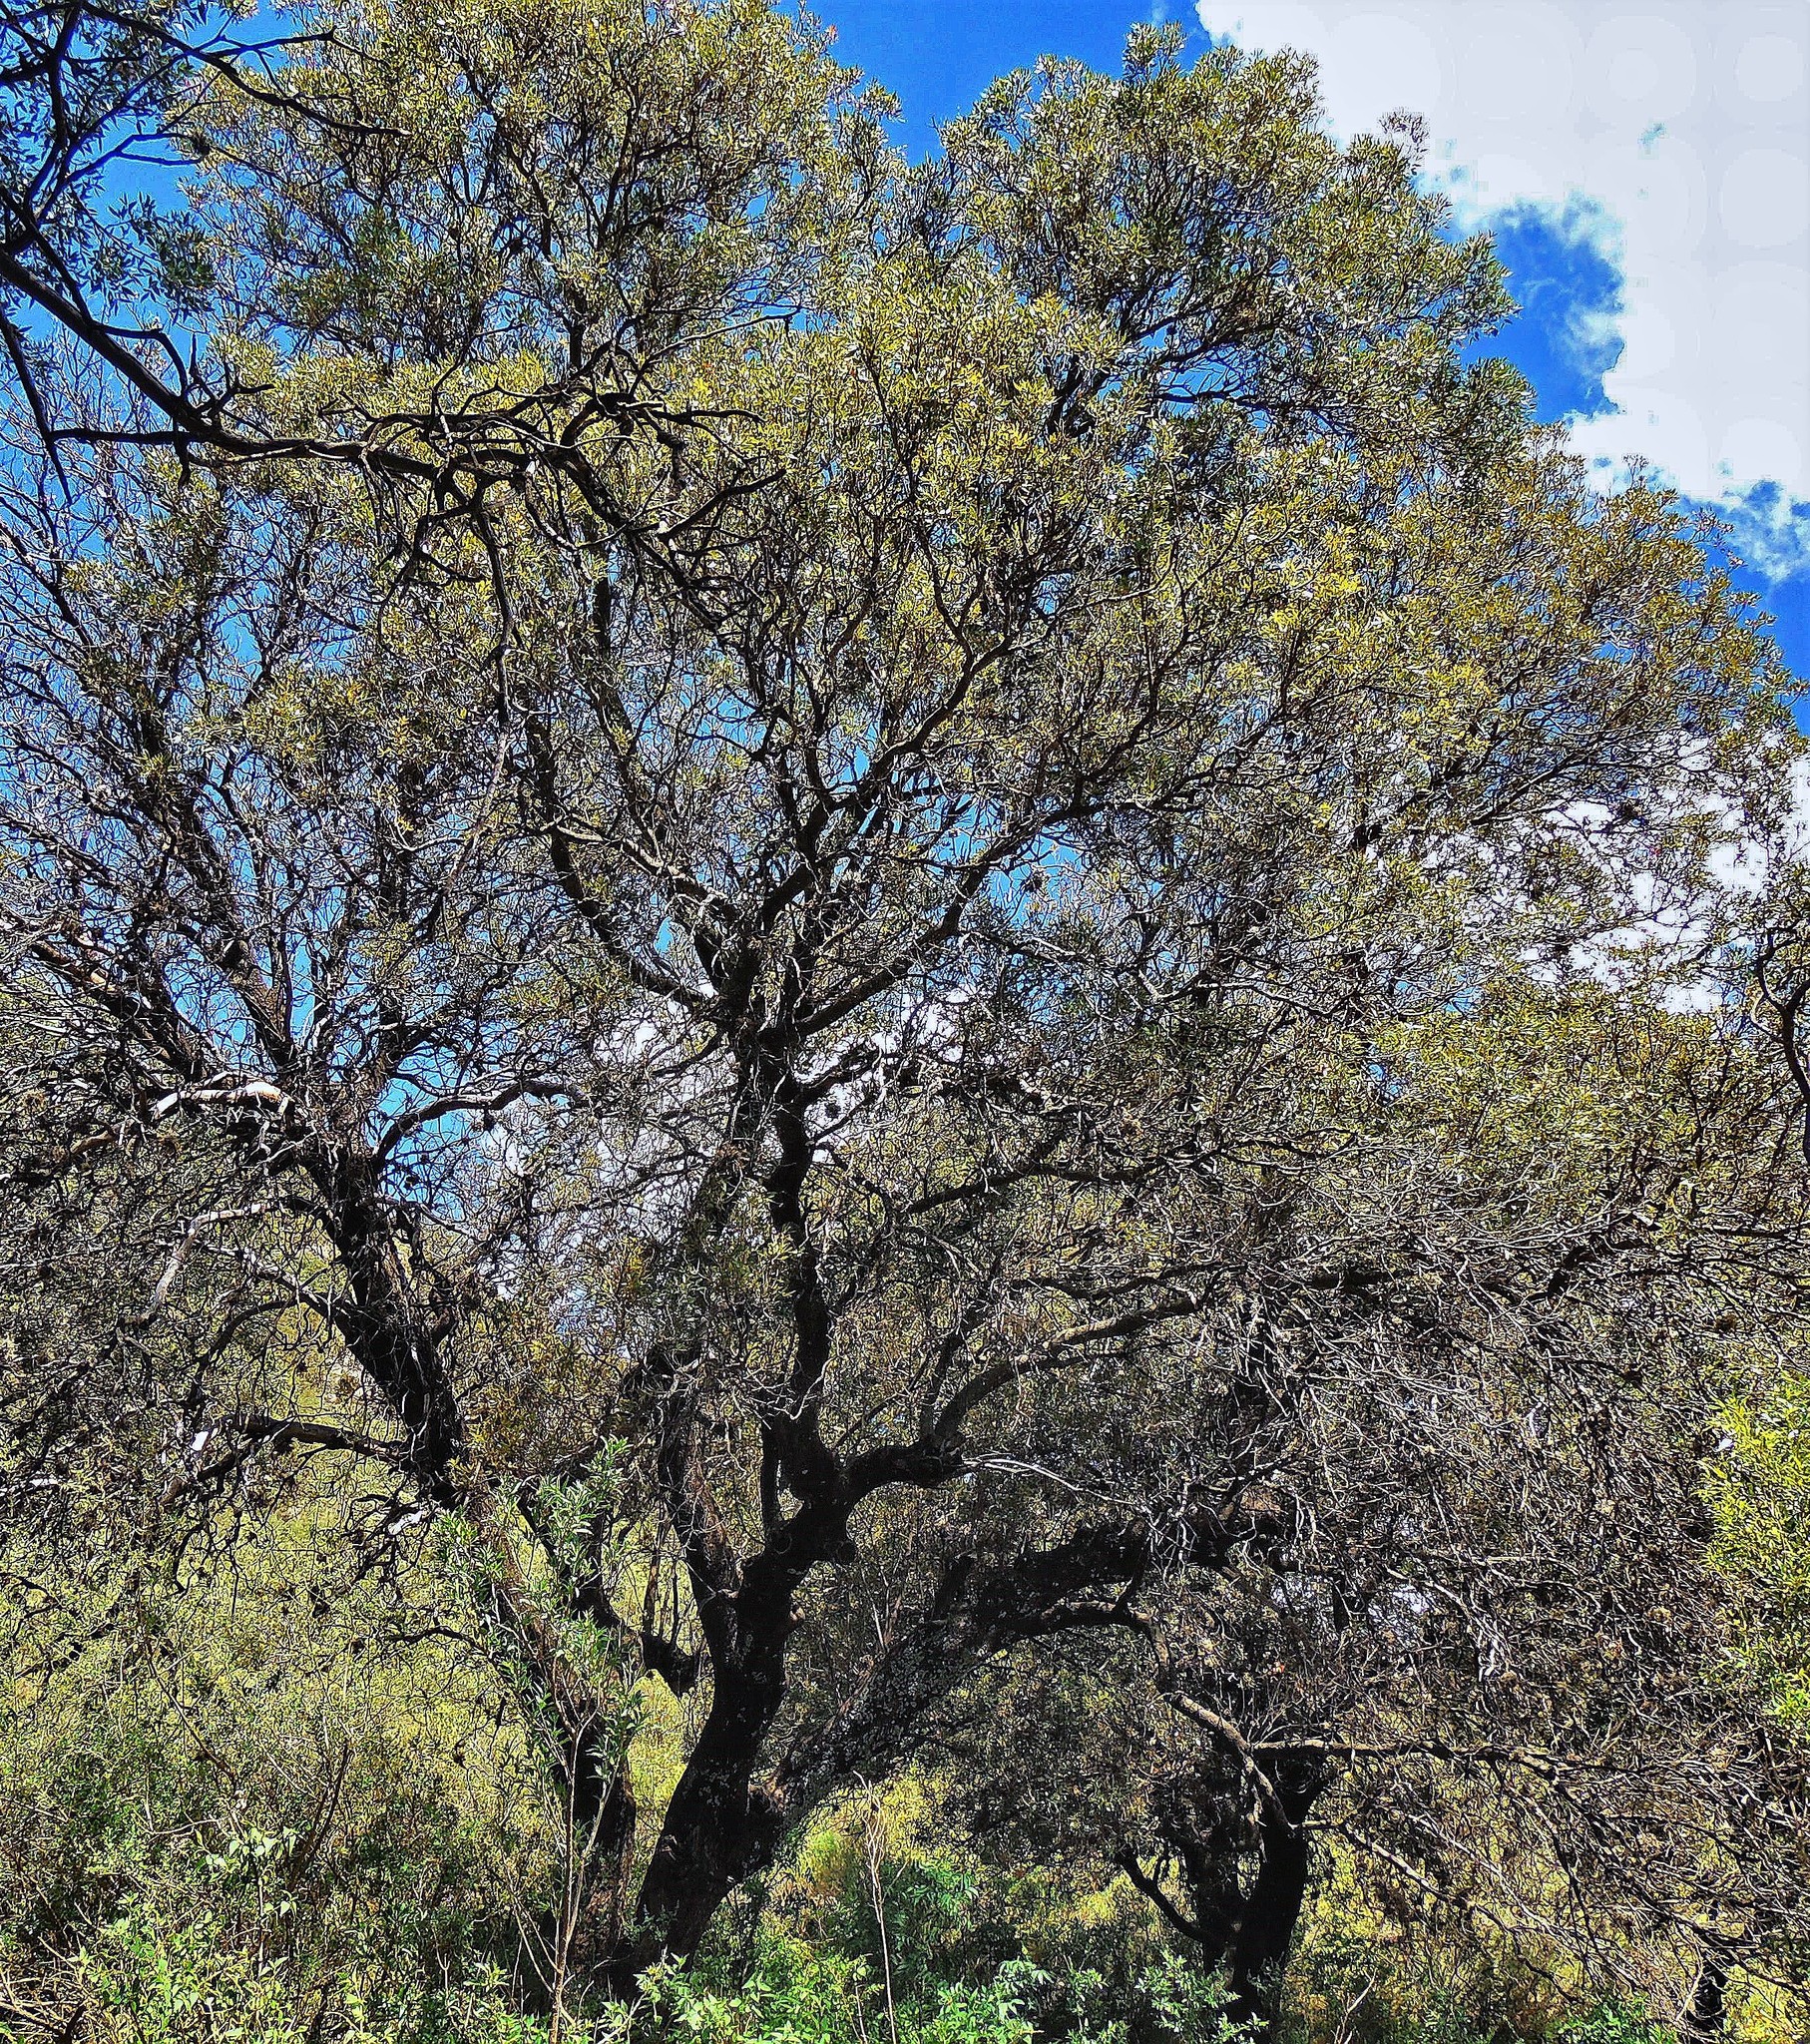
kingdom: Plantae
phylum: Tracheophyta
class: Magnoliopsida
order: Sapindales
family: Anacardiaceae
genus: Lithraea
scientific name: Lithraea molleoides
